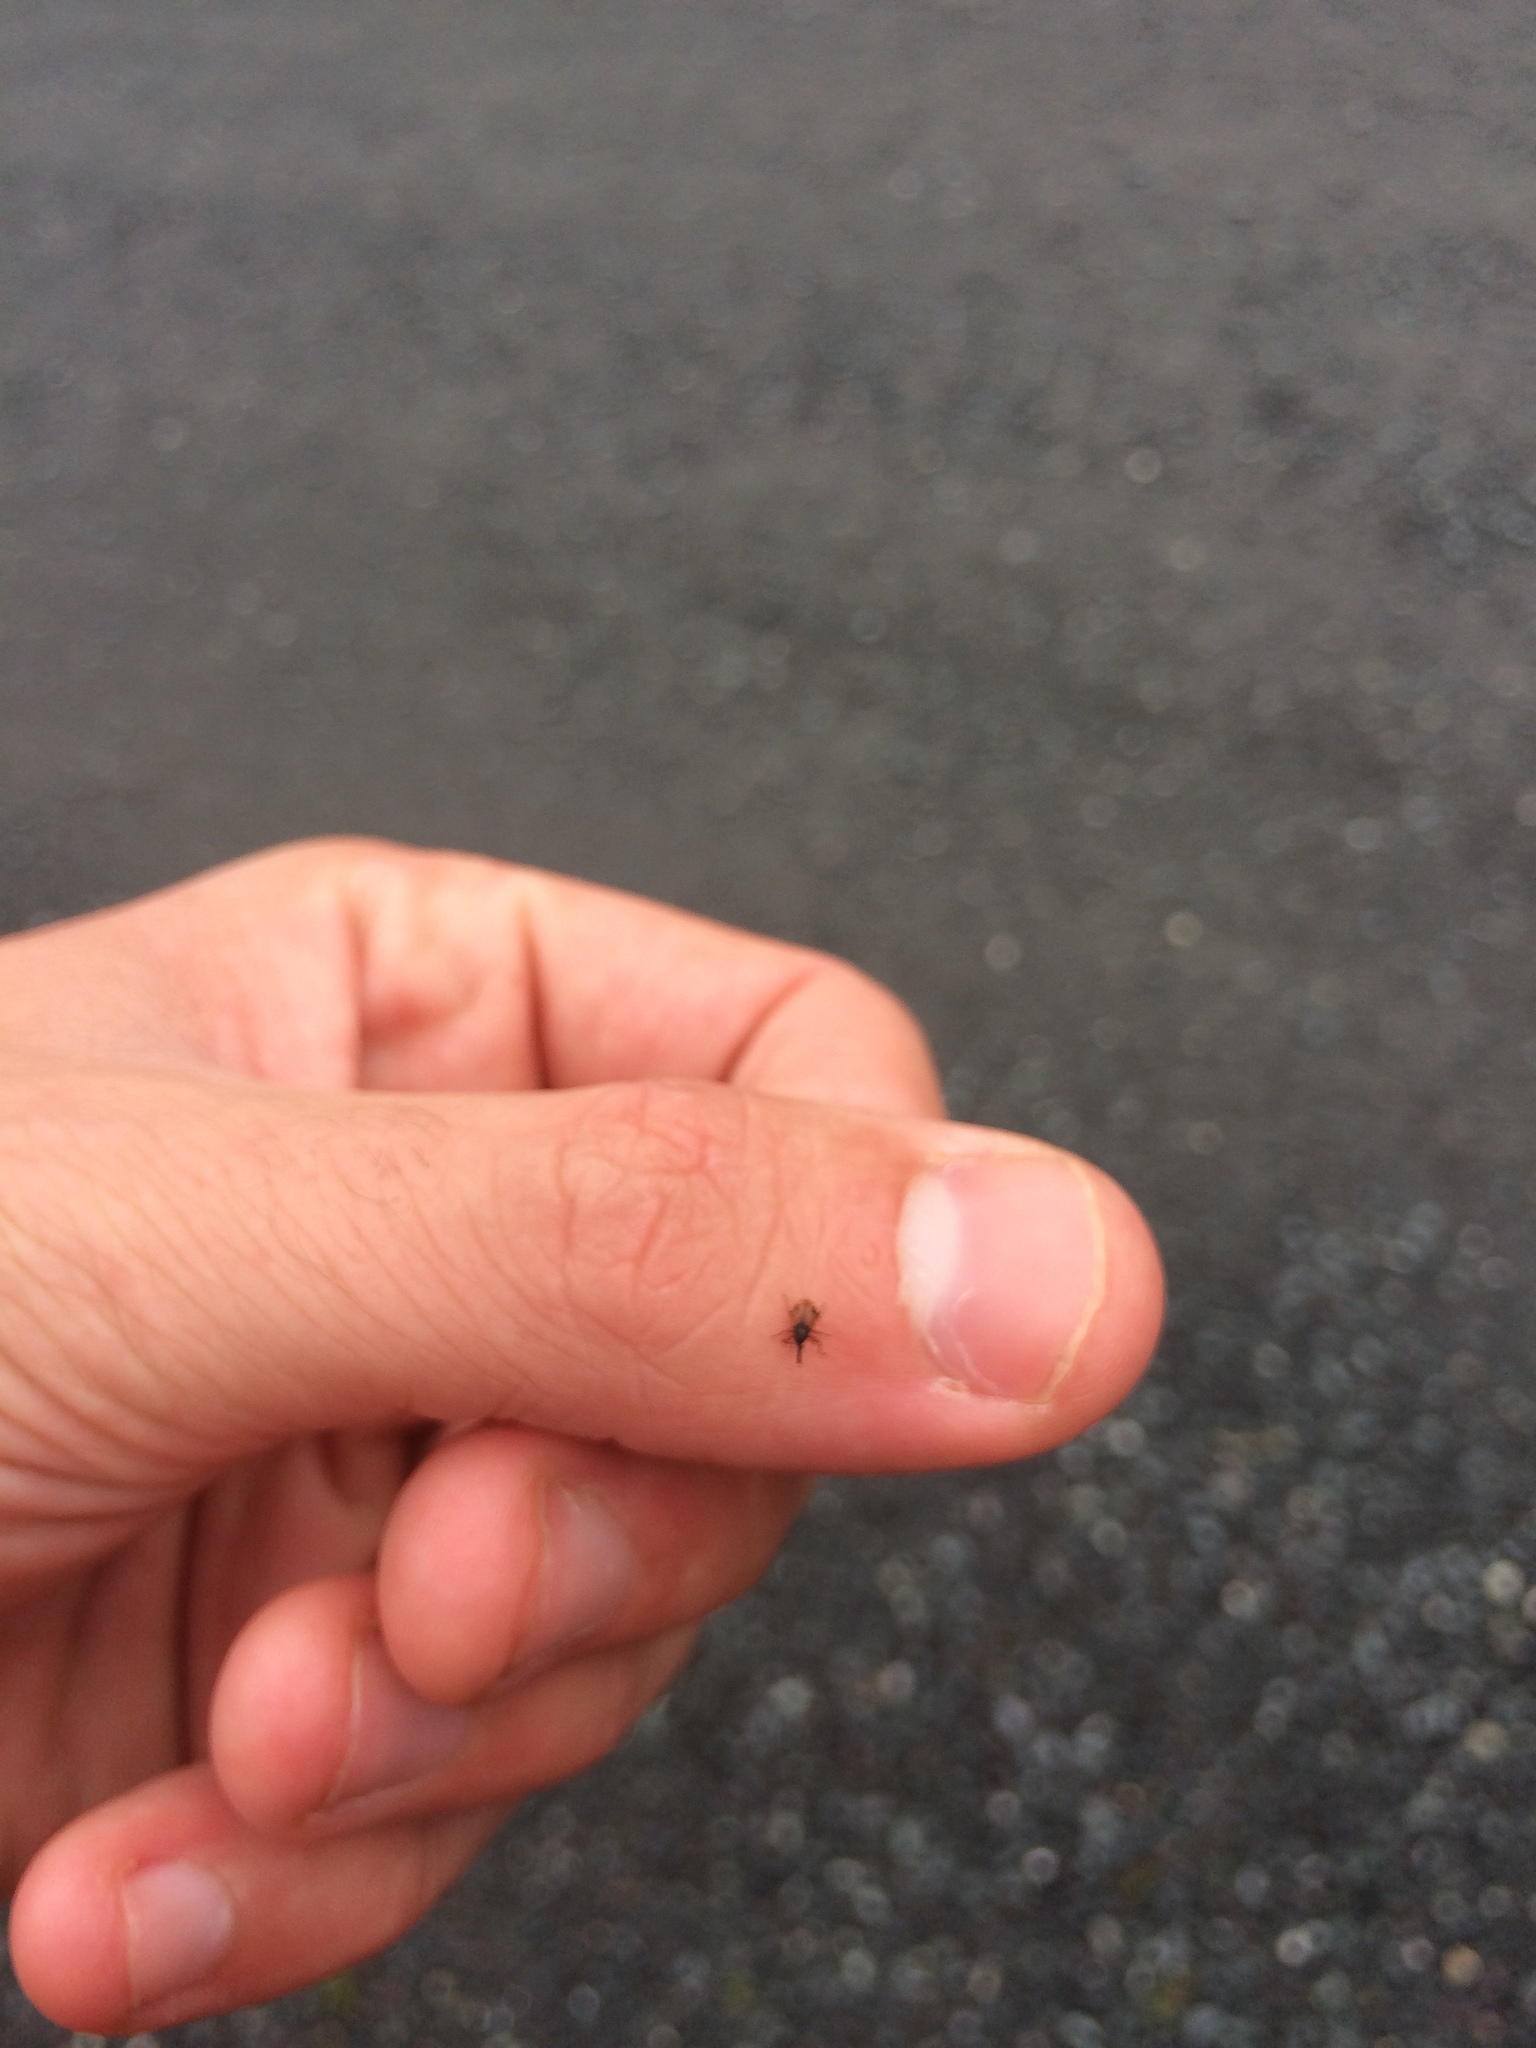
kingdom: Animalia
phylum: Arthropoda
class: Insecta
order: Coleoptera
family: Curculionidae
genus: Anthonomus
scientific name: Anthonomus signatus
